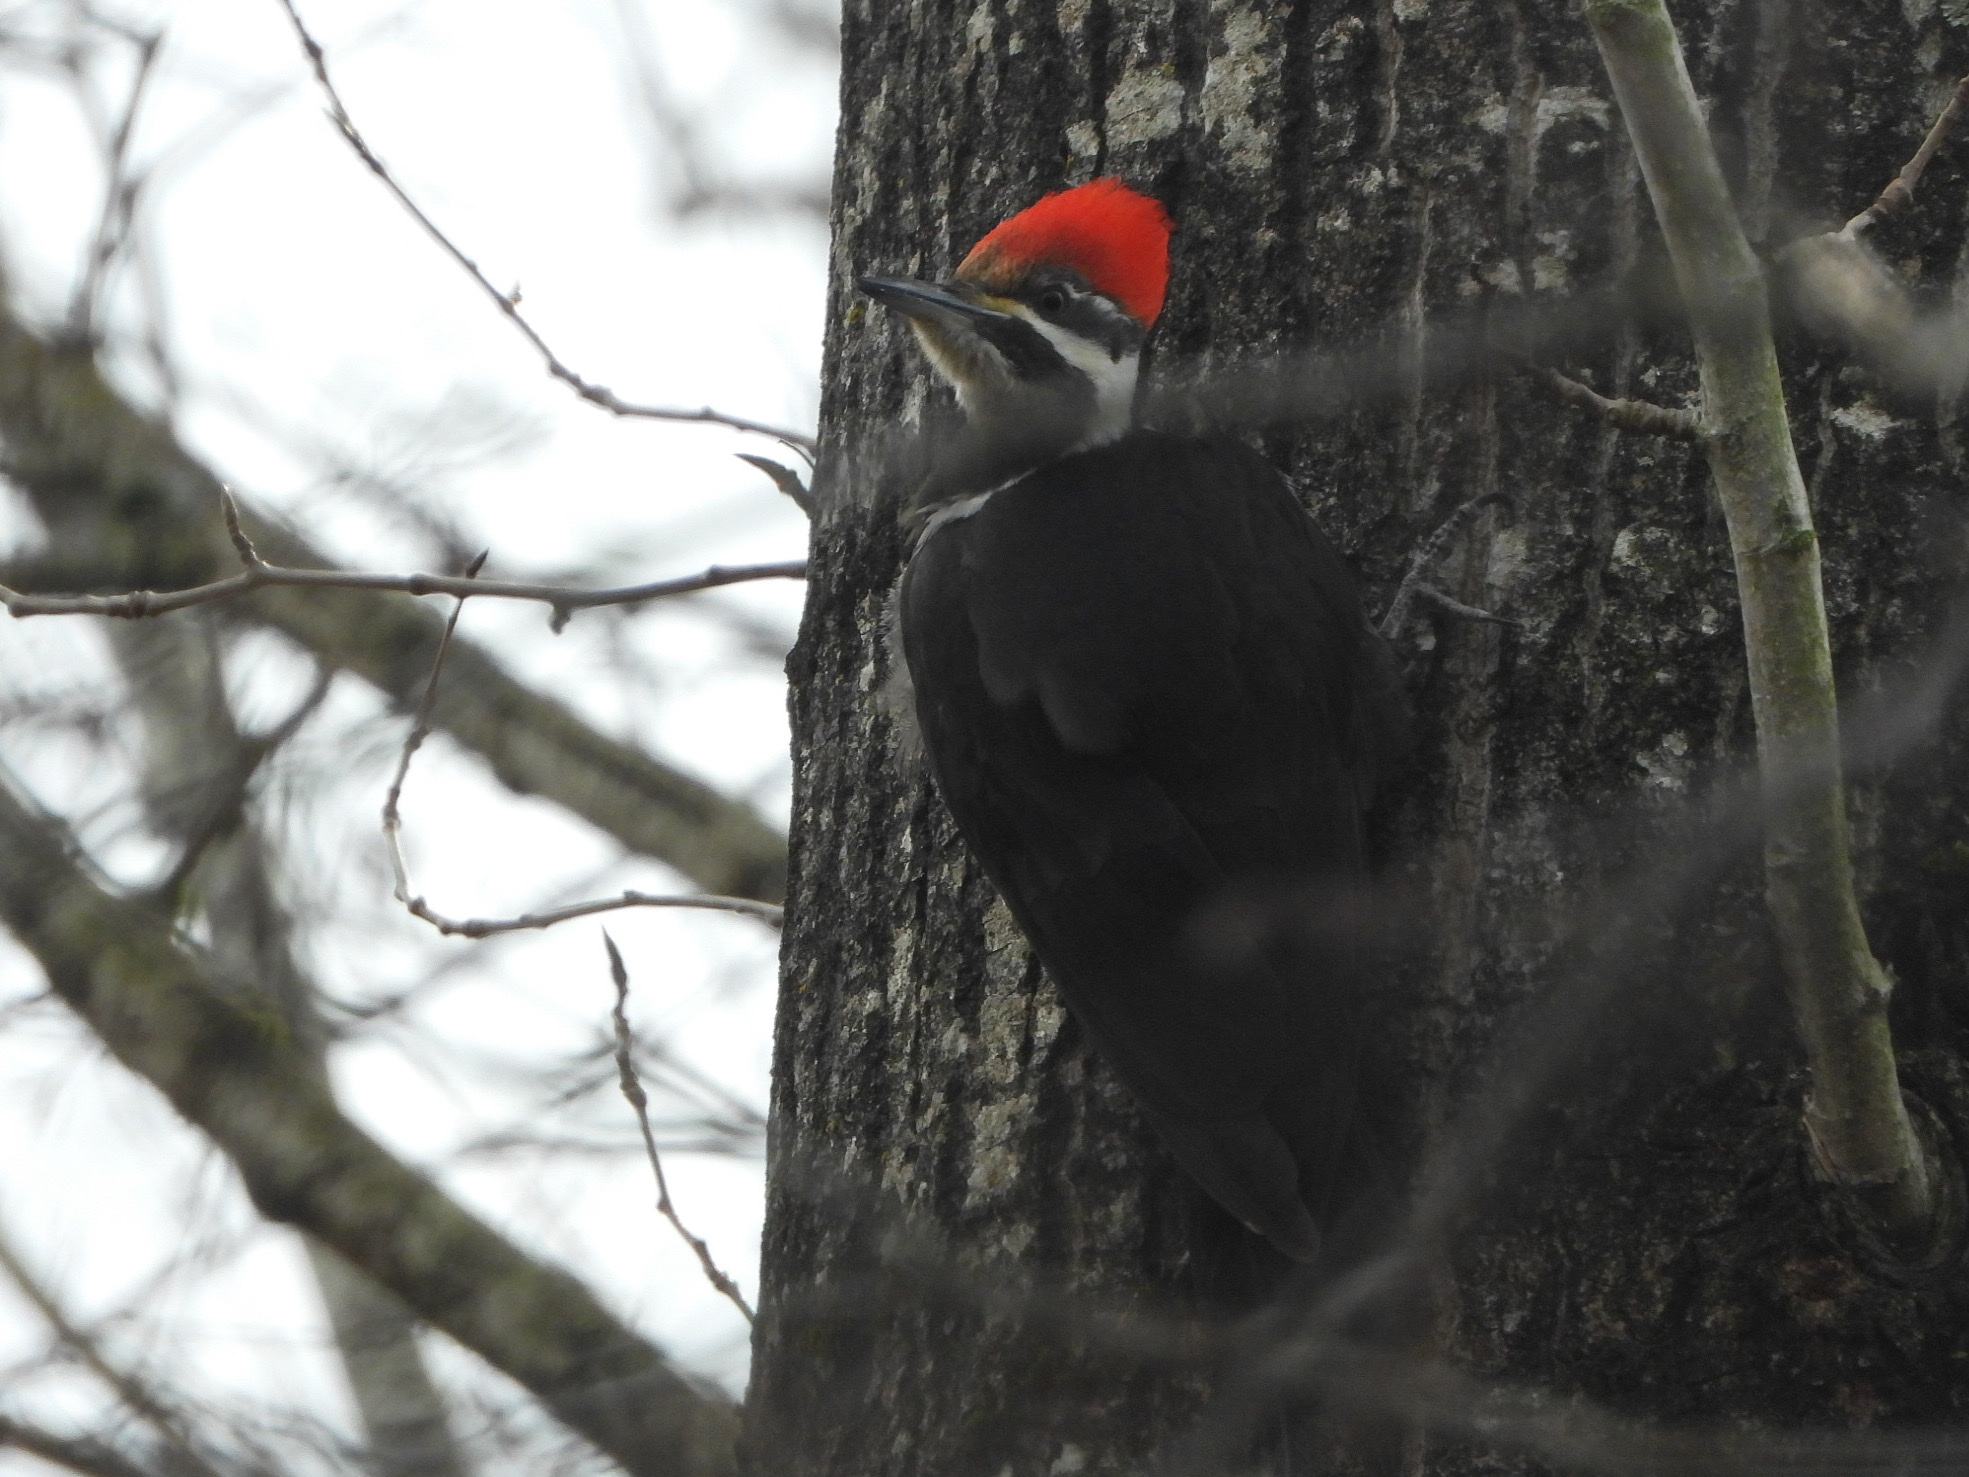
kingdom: Animalia
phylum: Chordata
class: Aves
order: Piciformes
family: Picidae
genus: Dryocopus
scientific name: Dryocopus pileatus
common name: Pileated woodpecker
